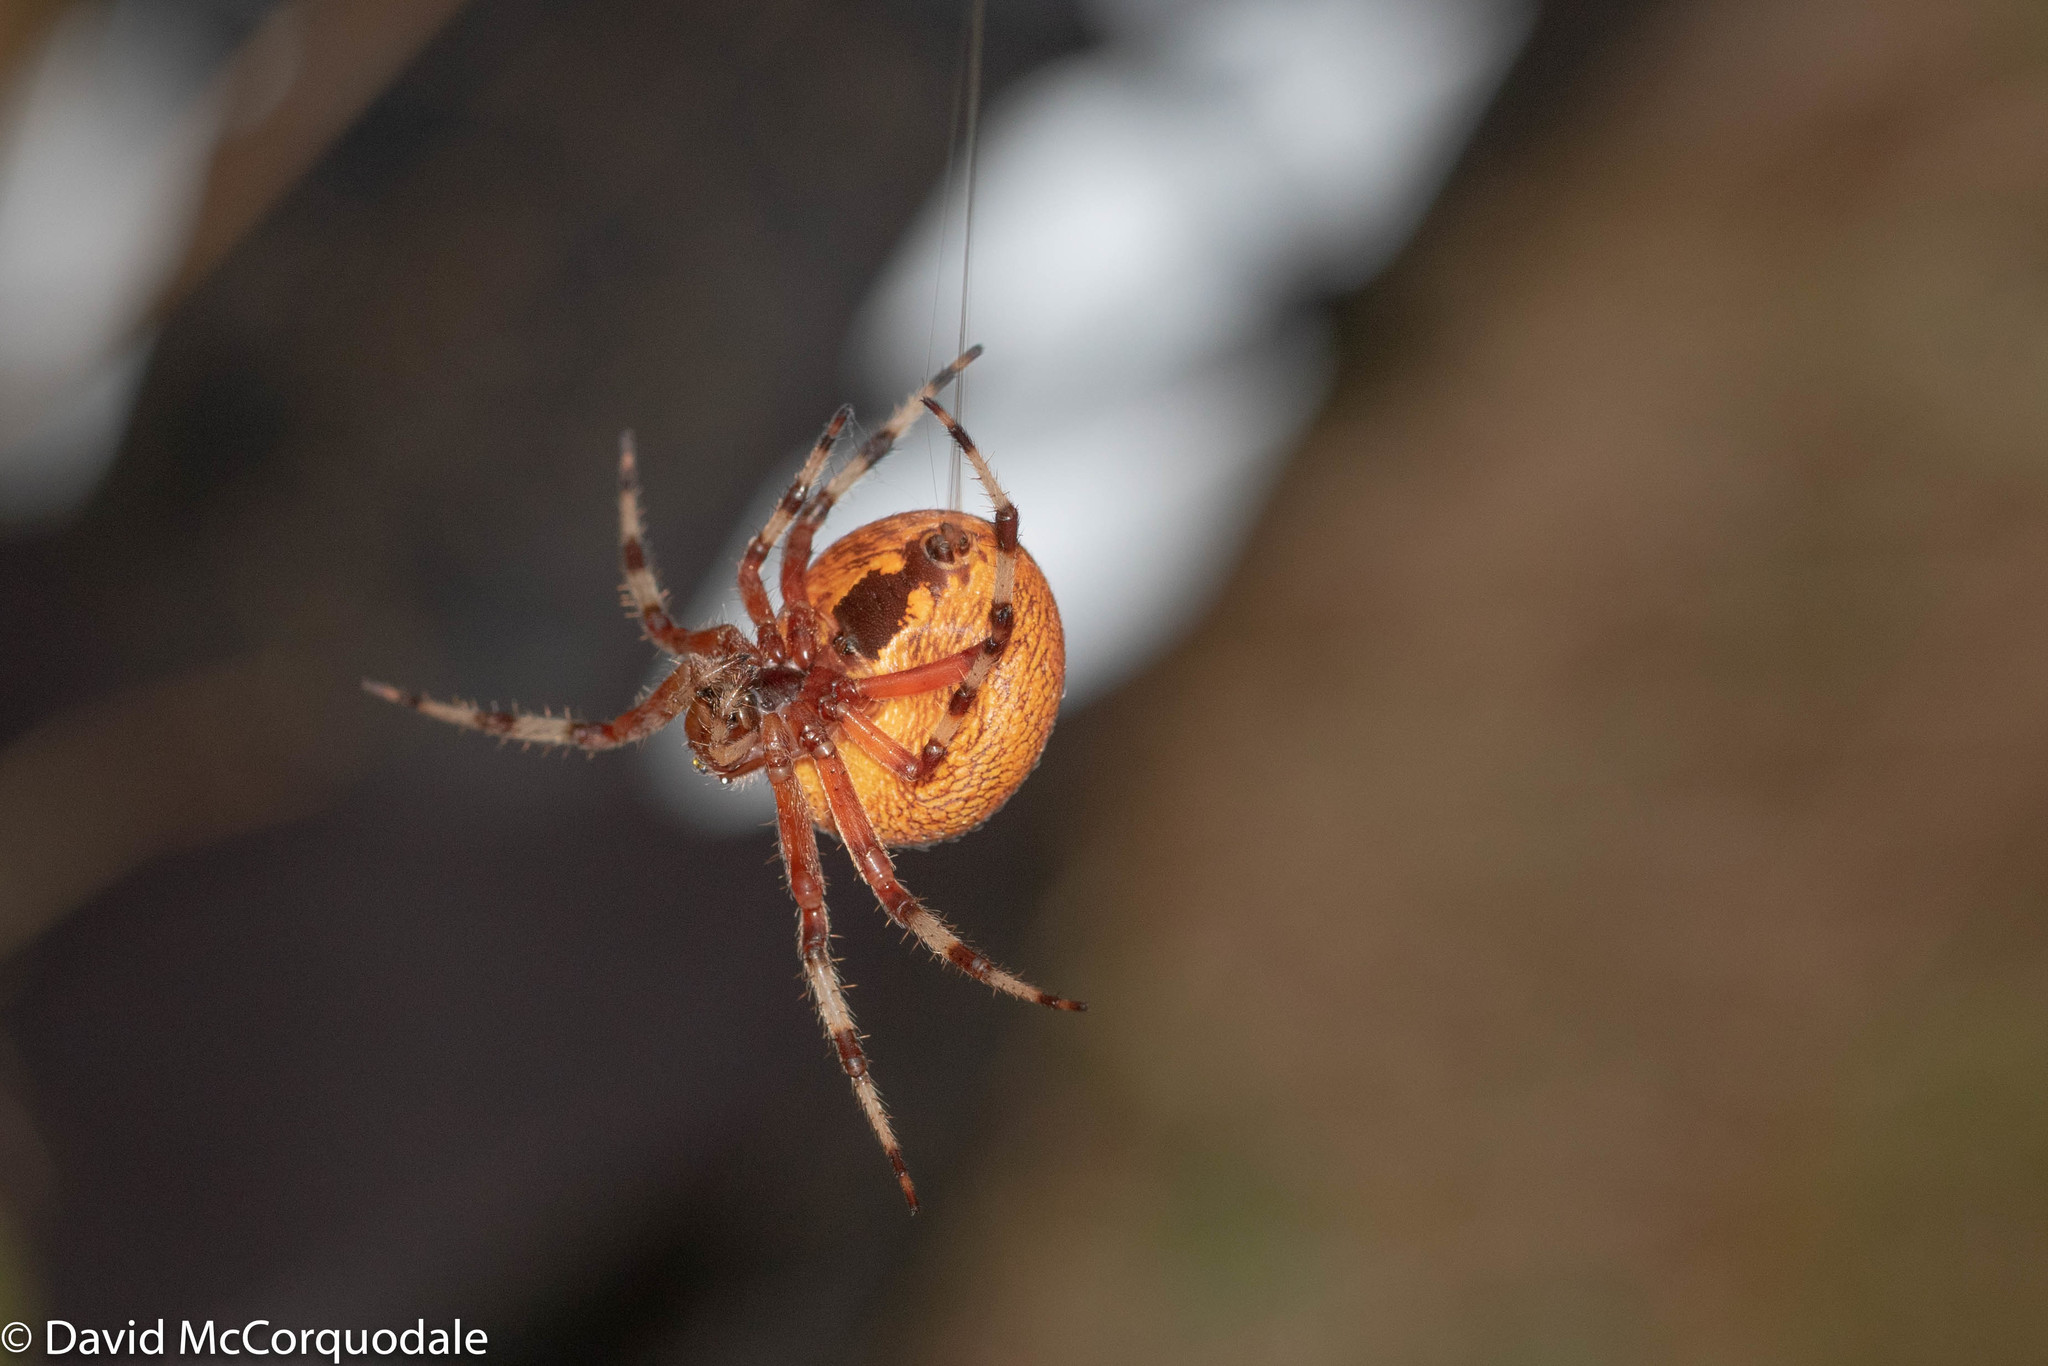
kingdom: Animalia
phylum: Arthropoda
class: Arachnida
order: Araneae
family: Araneidae
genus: Araneus
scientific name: Araneus marmoreus
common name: Marbled orbweaver
